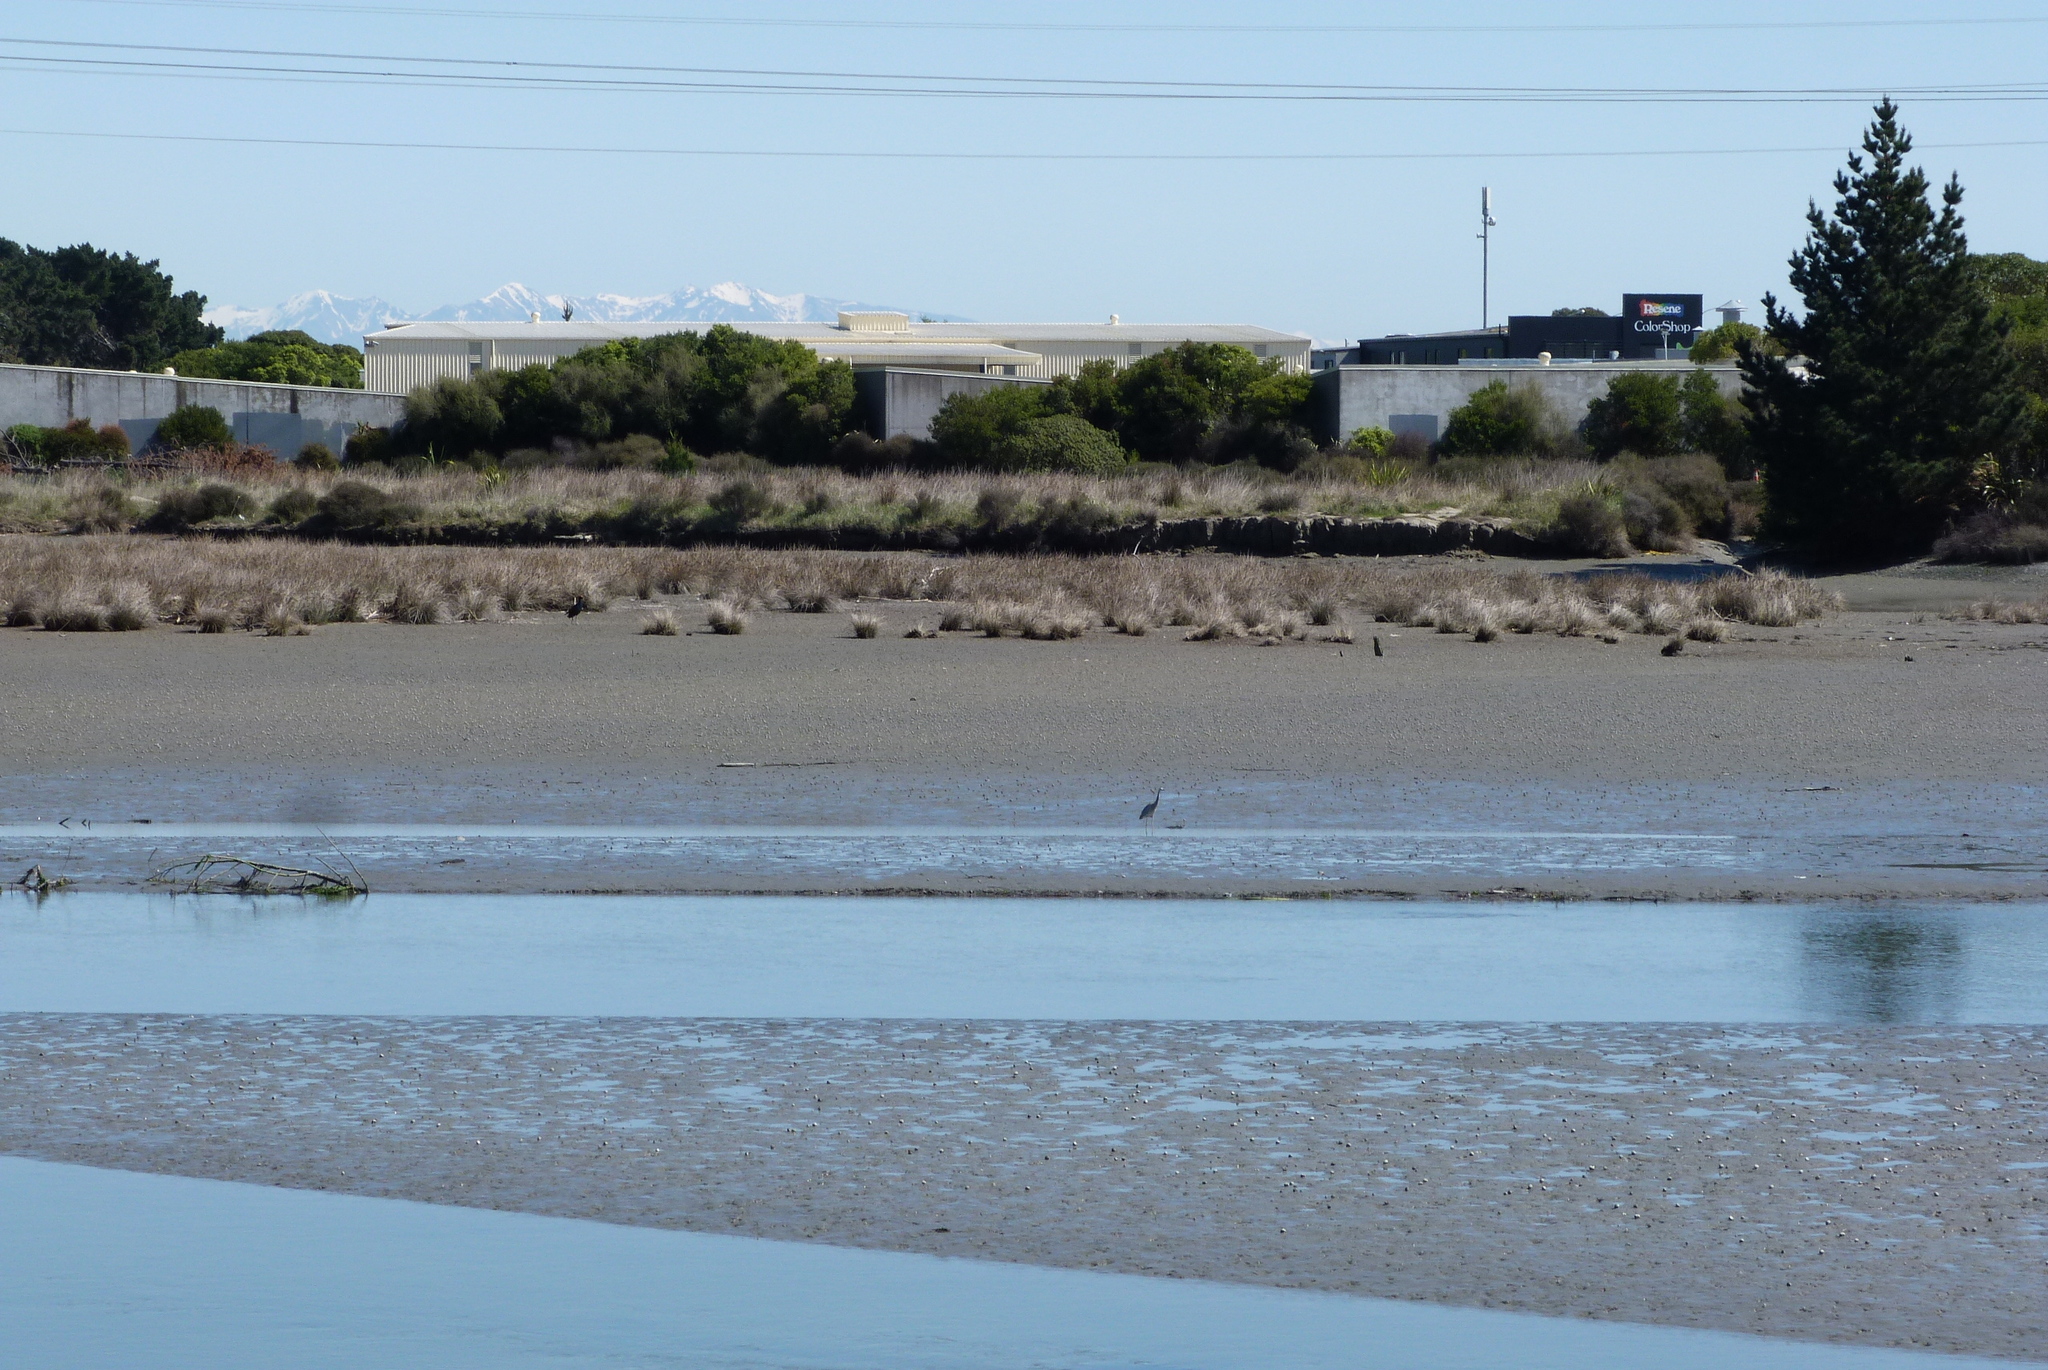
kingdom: Animalia
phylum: Chordata
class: Aves
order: Pelecaniformes
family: Ardeidae
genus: Egretta
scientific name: Egretta novaehollandiae
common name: White-faced heron
